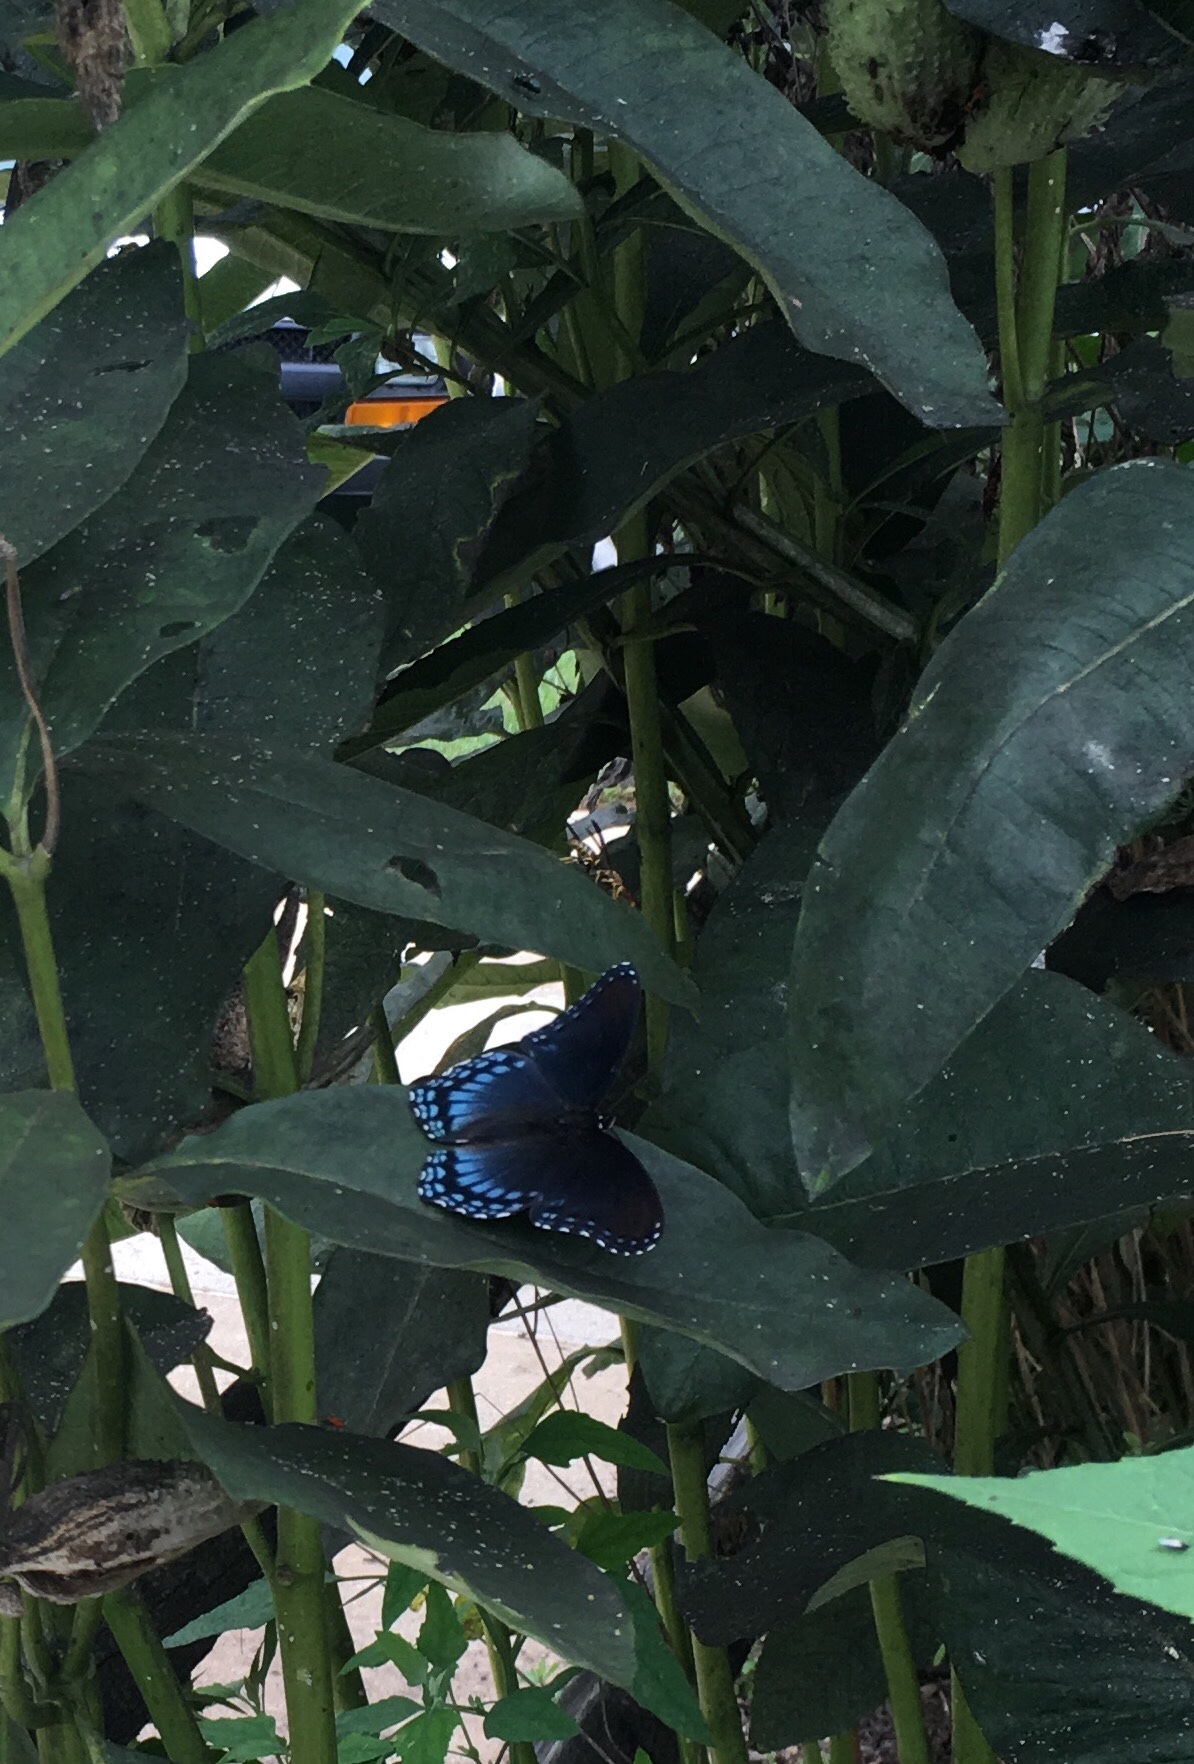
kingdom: Animalia
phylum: Arthropoda
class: Insecta
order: Lepidoptera
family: Nymphalidae
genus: Limenitis
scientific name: Limenitis astyanax
